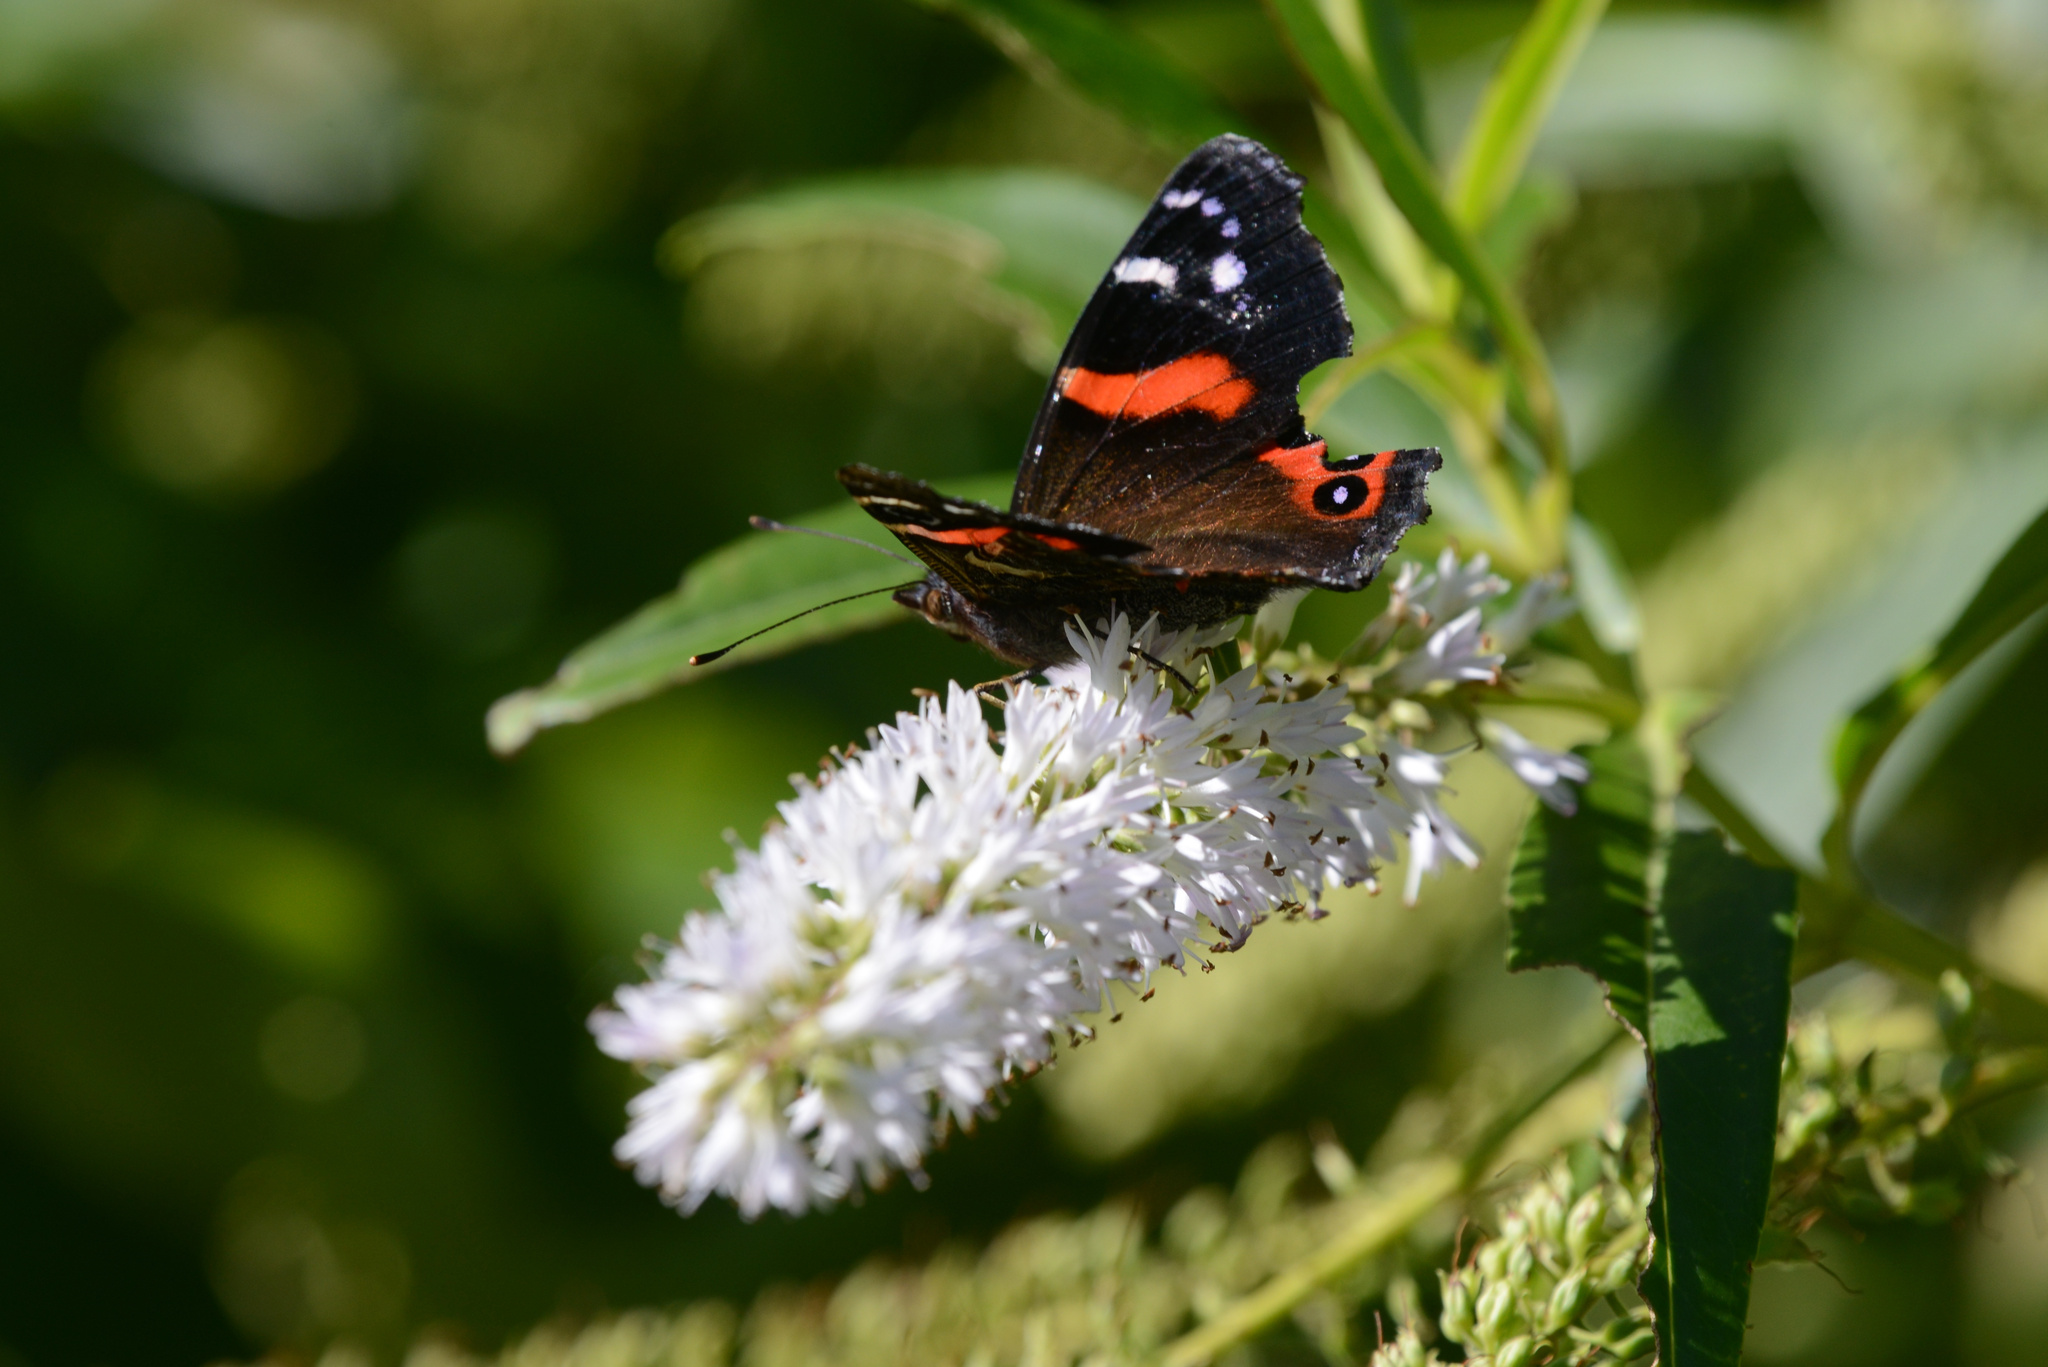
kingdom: Animalia
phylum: Arthropoda
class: Insecta
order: Lepidoptera
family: Nymphalidae
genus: Vanessa
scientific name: Vanessa gonerilla
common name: New zealand red admiral
